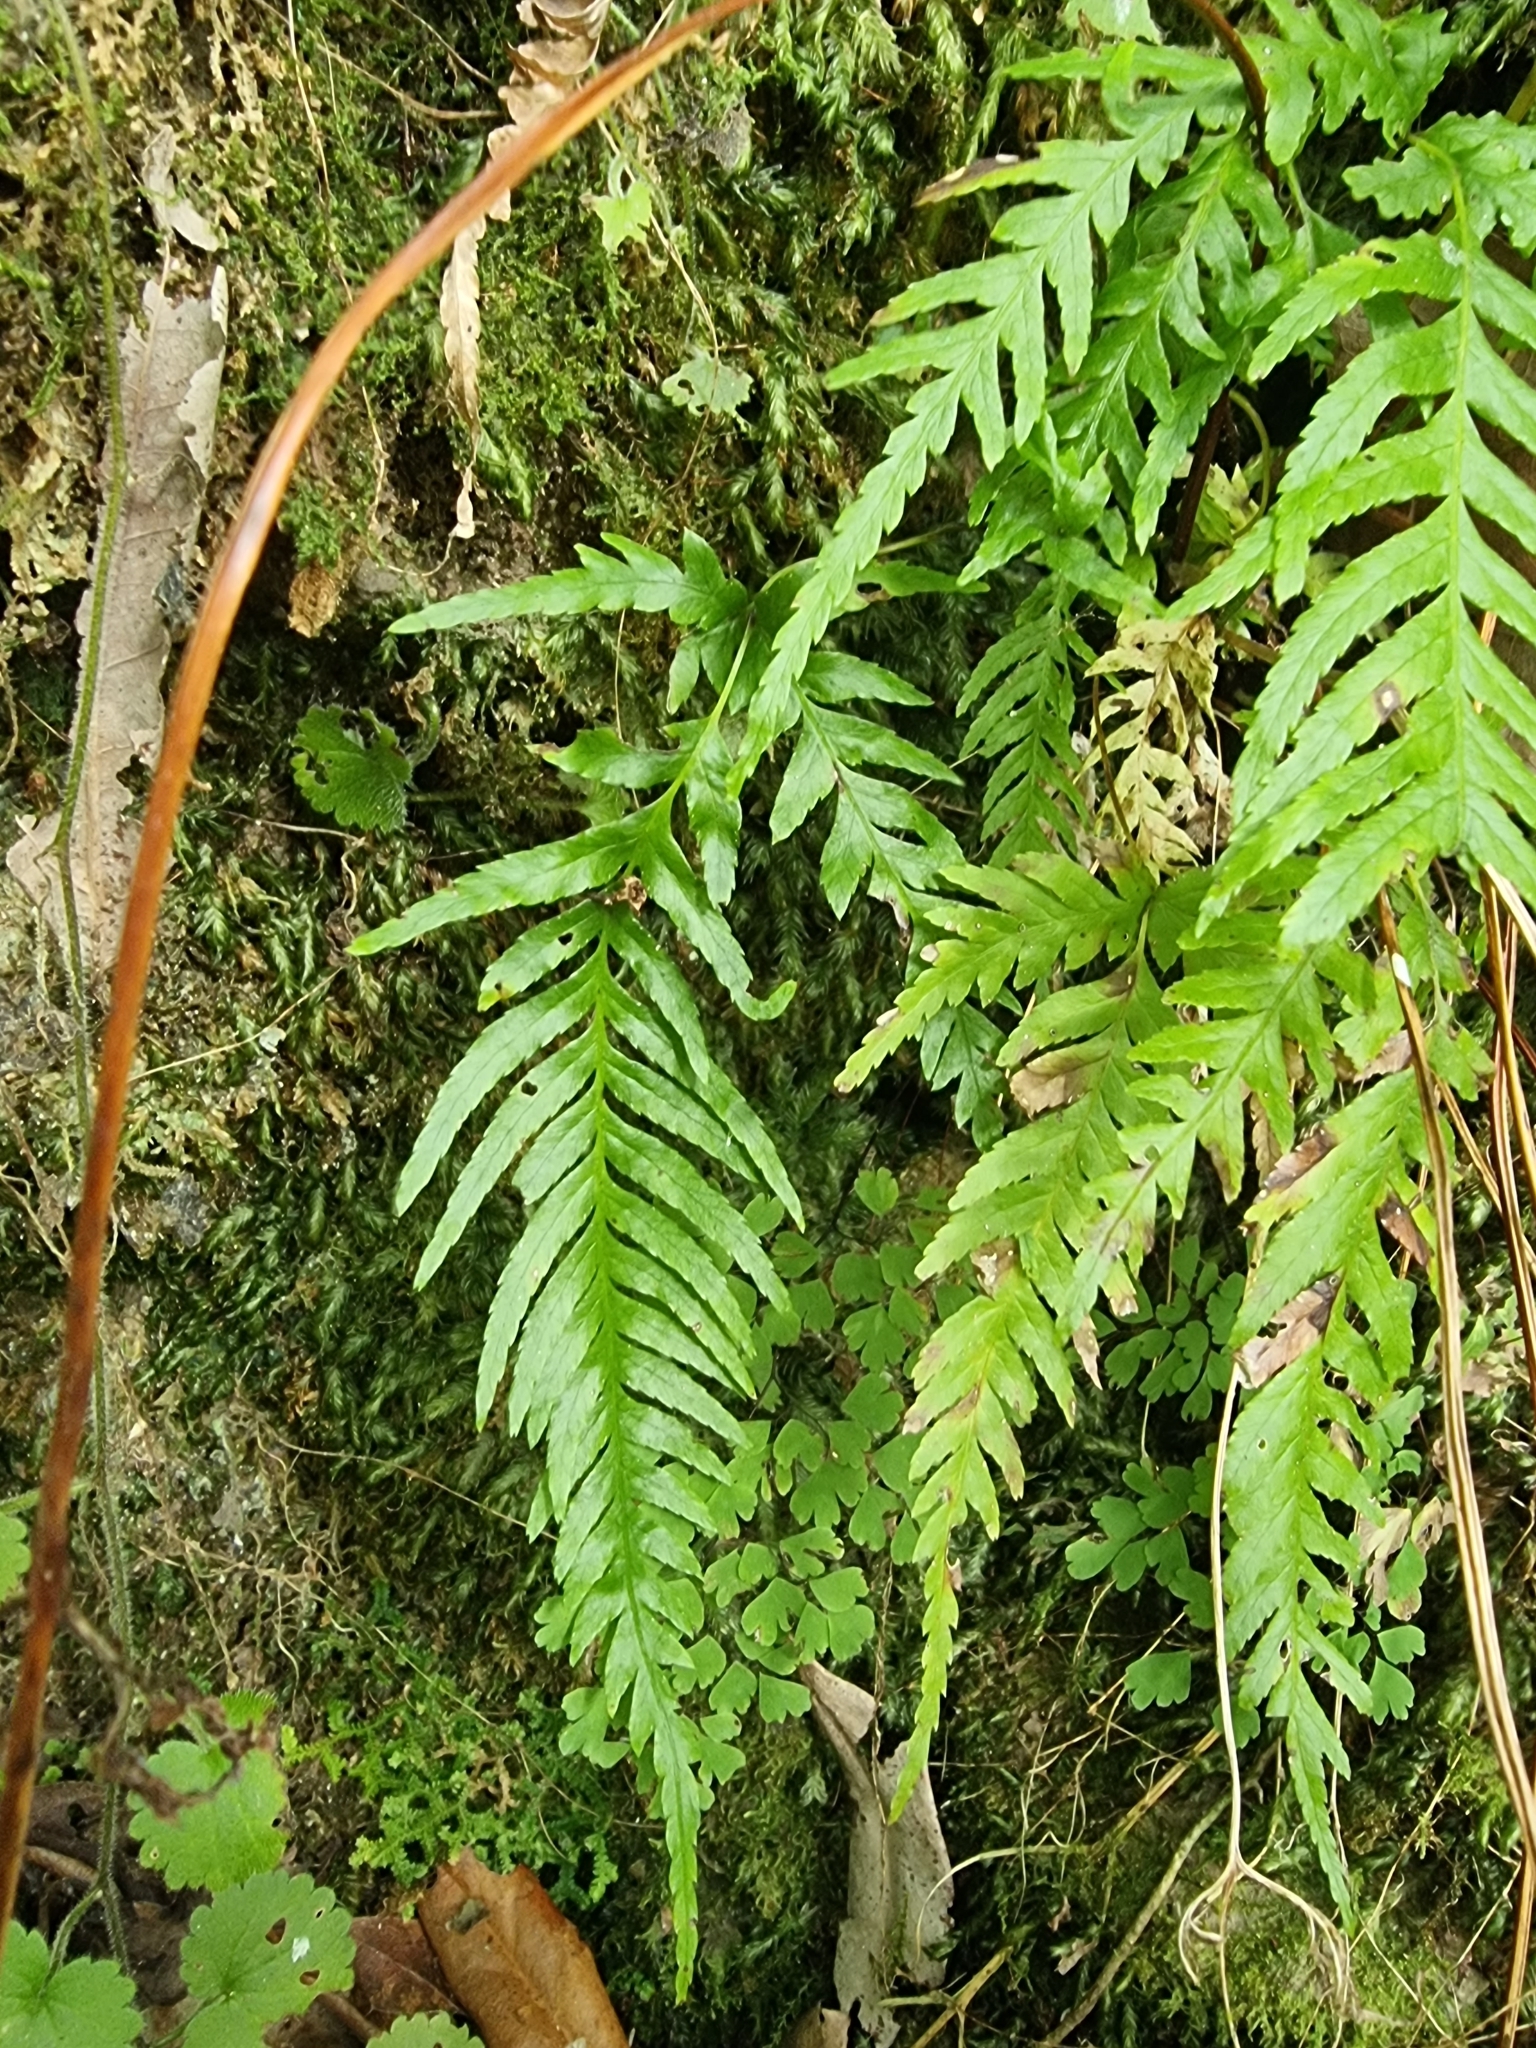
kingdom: Plantae
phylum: Tracheophyta
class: Polypodiopsida
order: Polypodiales
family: Blechnaceae
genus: Doodia
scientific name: Doodia caudata
